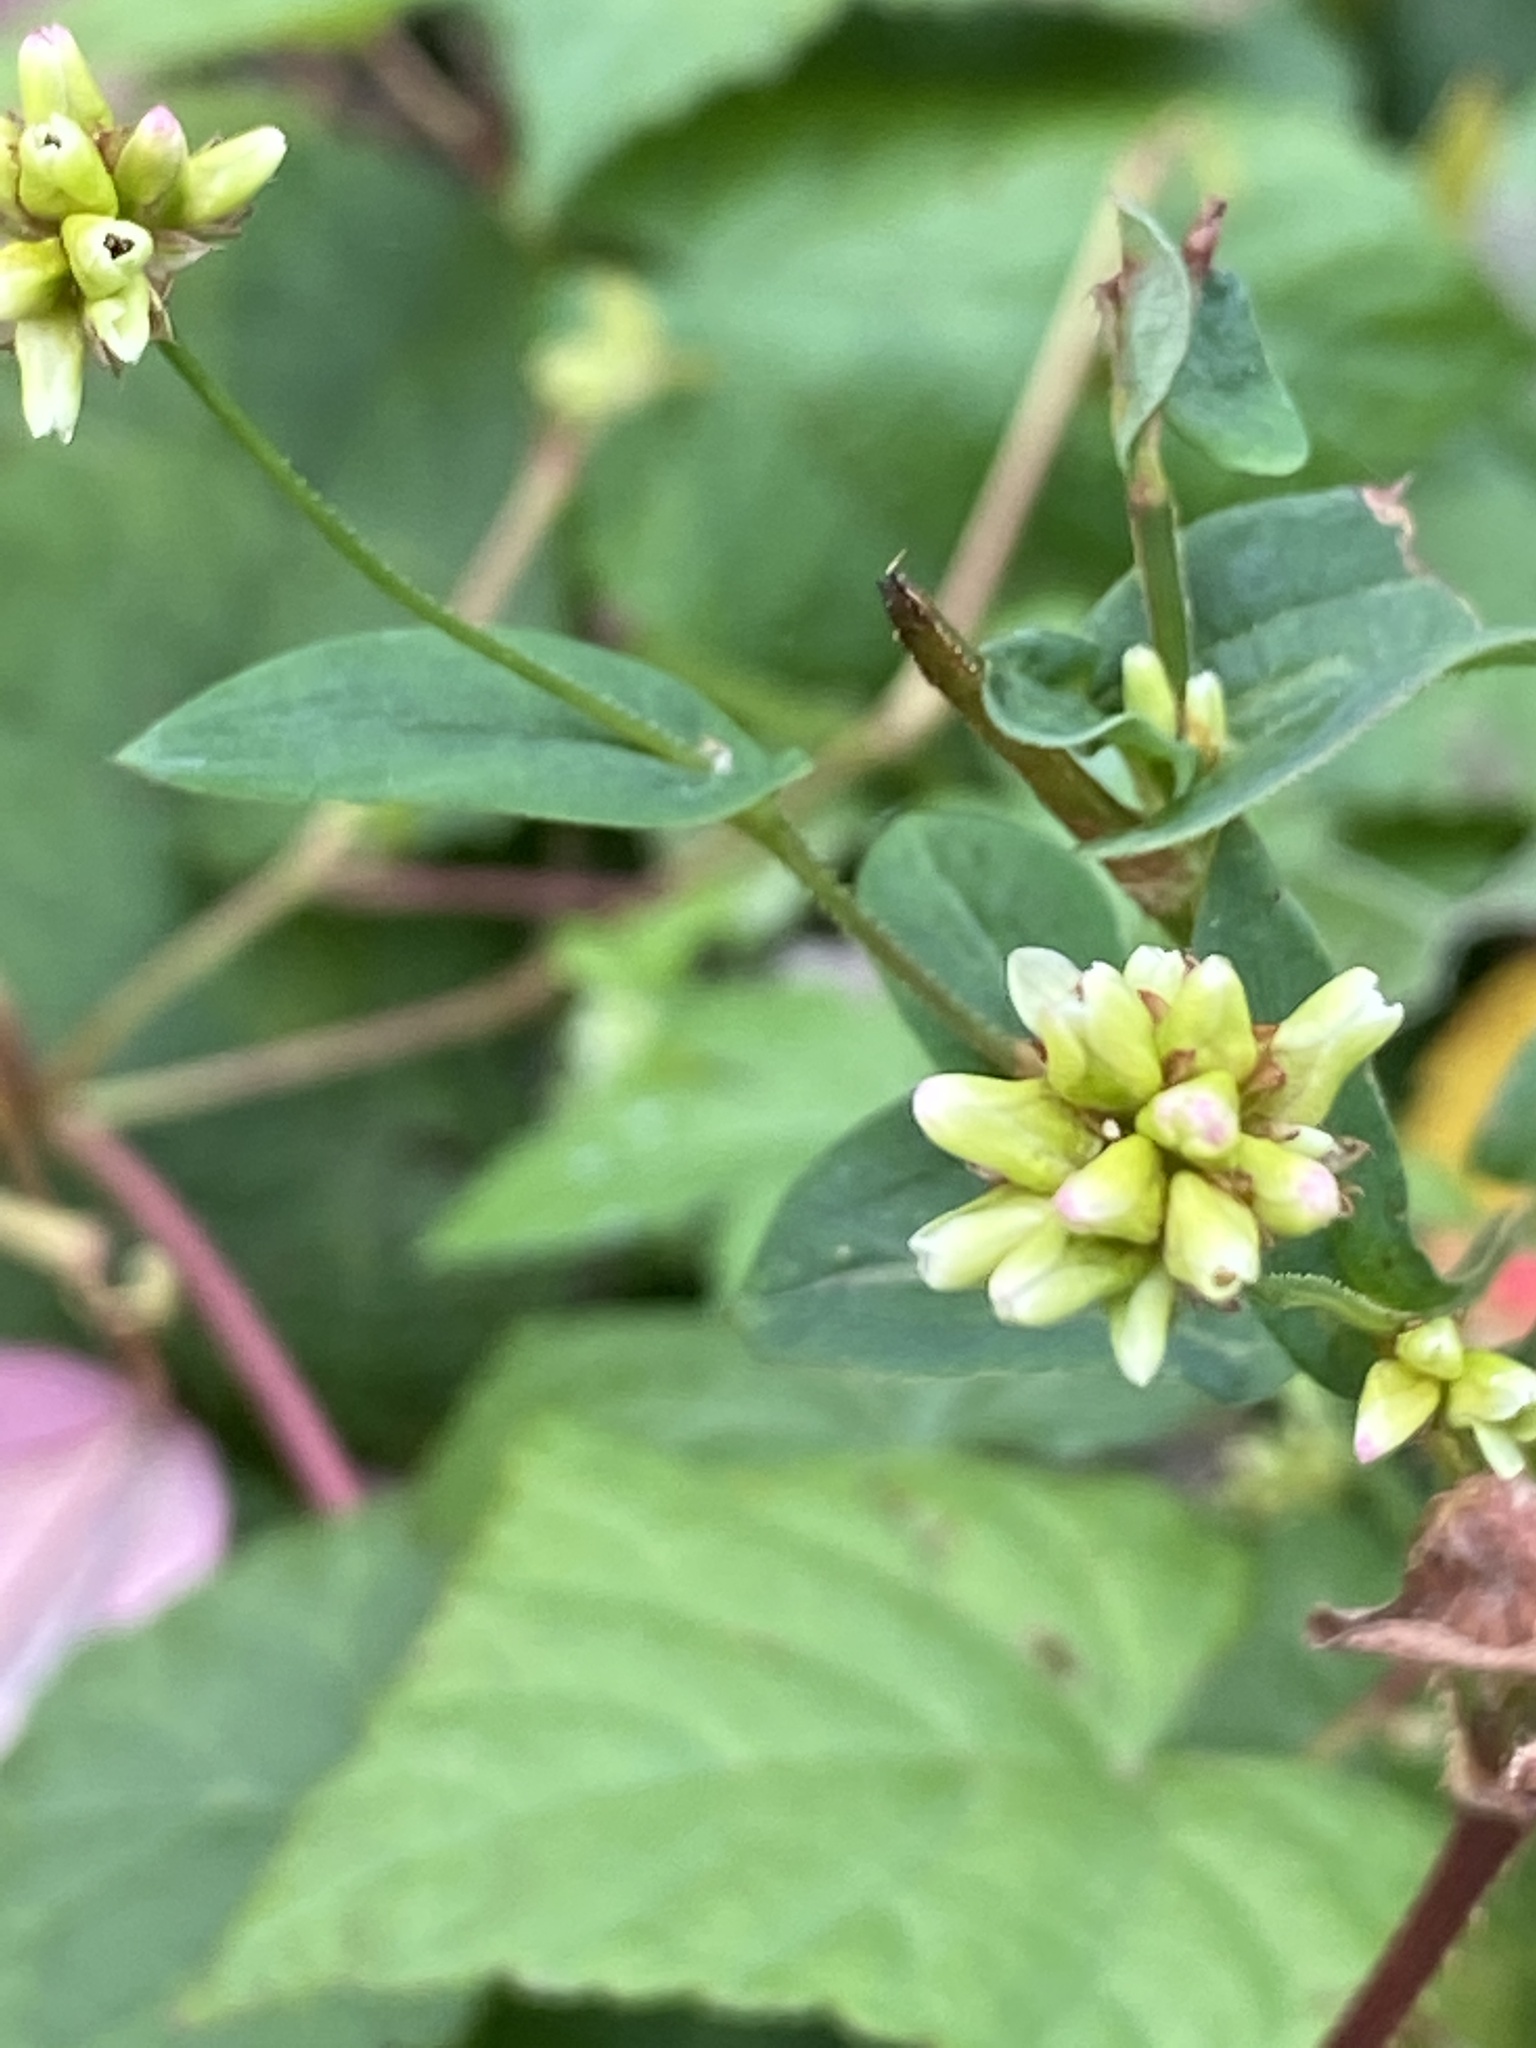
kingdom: Plantae
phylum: Tracheophyta
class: Magnoliopsida
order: Caryophyllales
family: Polygonaceae
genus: Persicaria
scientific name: Persicaria sagittata
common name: American tearthumb
